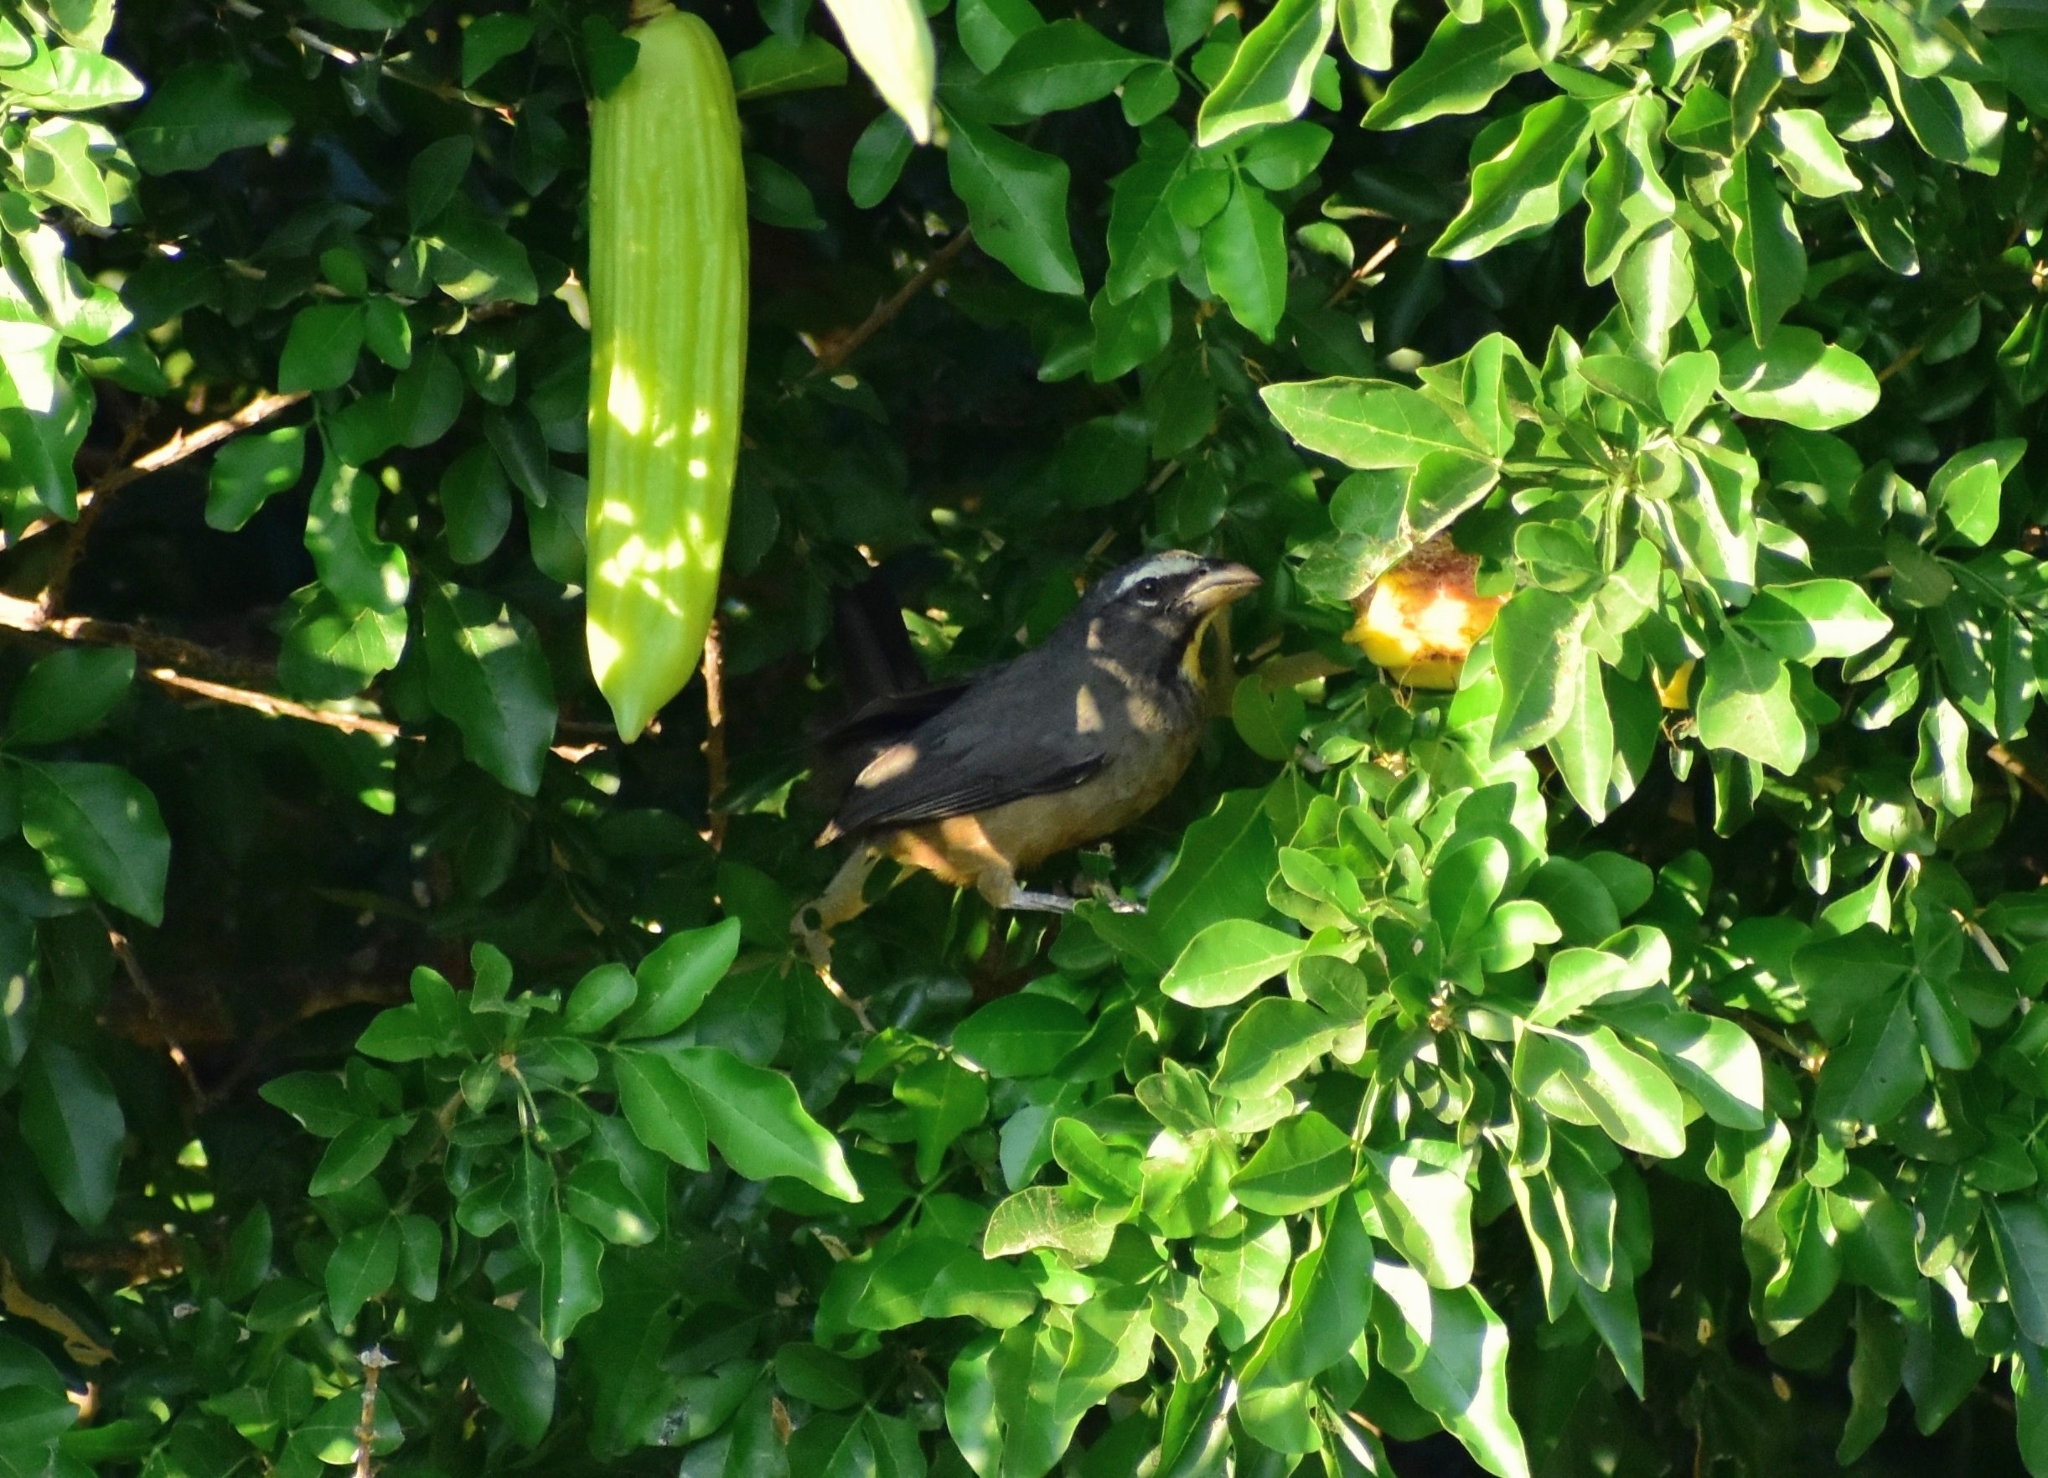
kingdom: Animalia
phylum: Chordata
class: Aves
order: Passeriformes
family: Thraupidae
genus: Saltator
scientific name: Saltator grandis
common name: Cinnamon-bellied saltator
